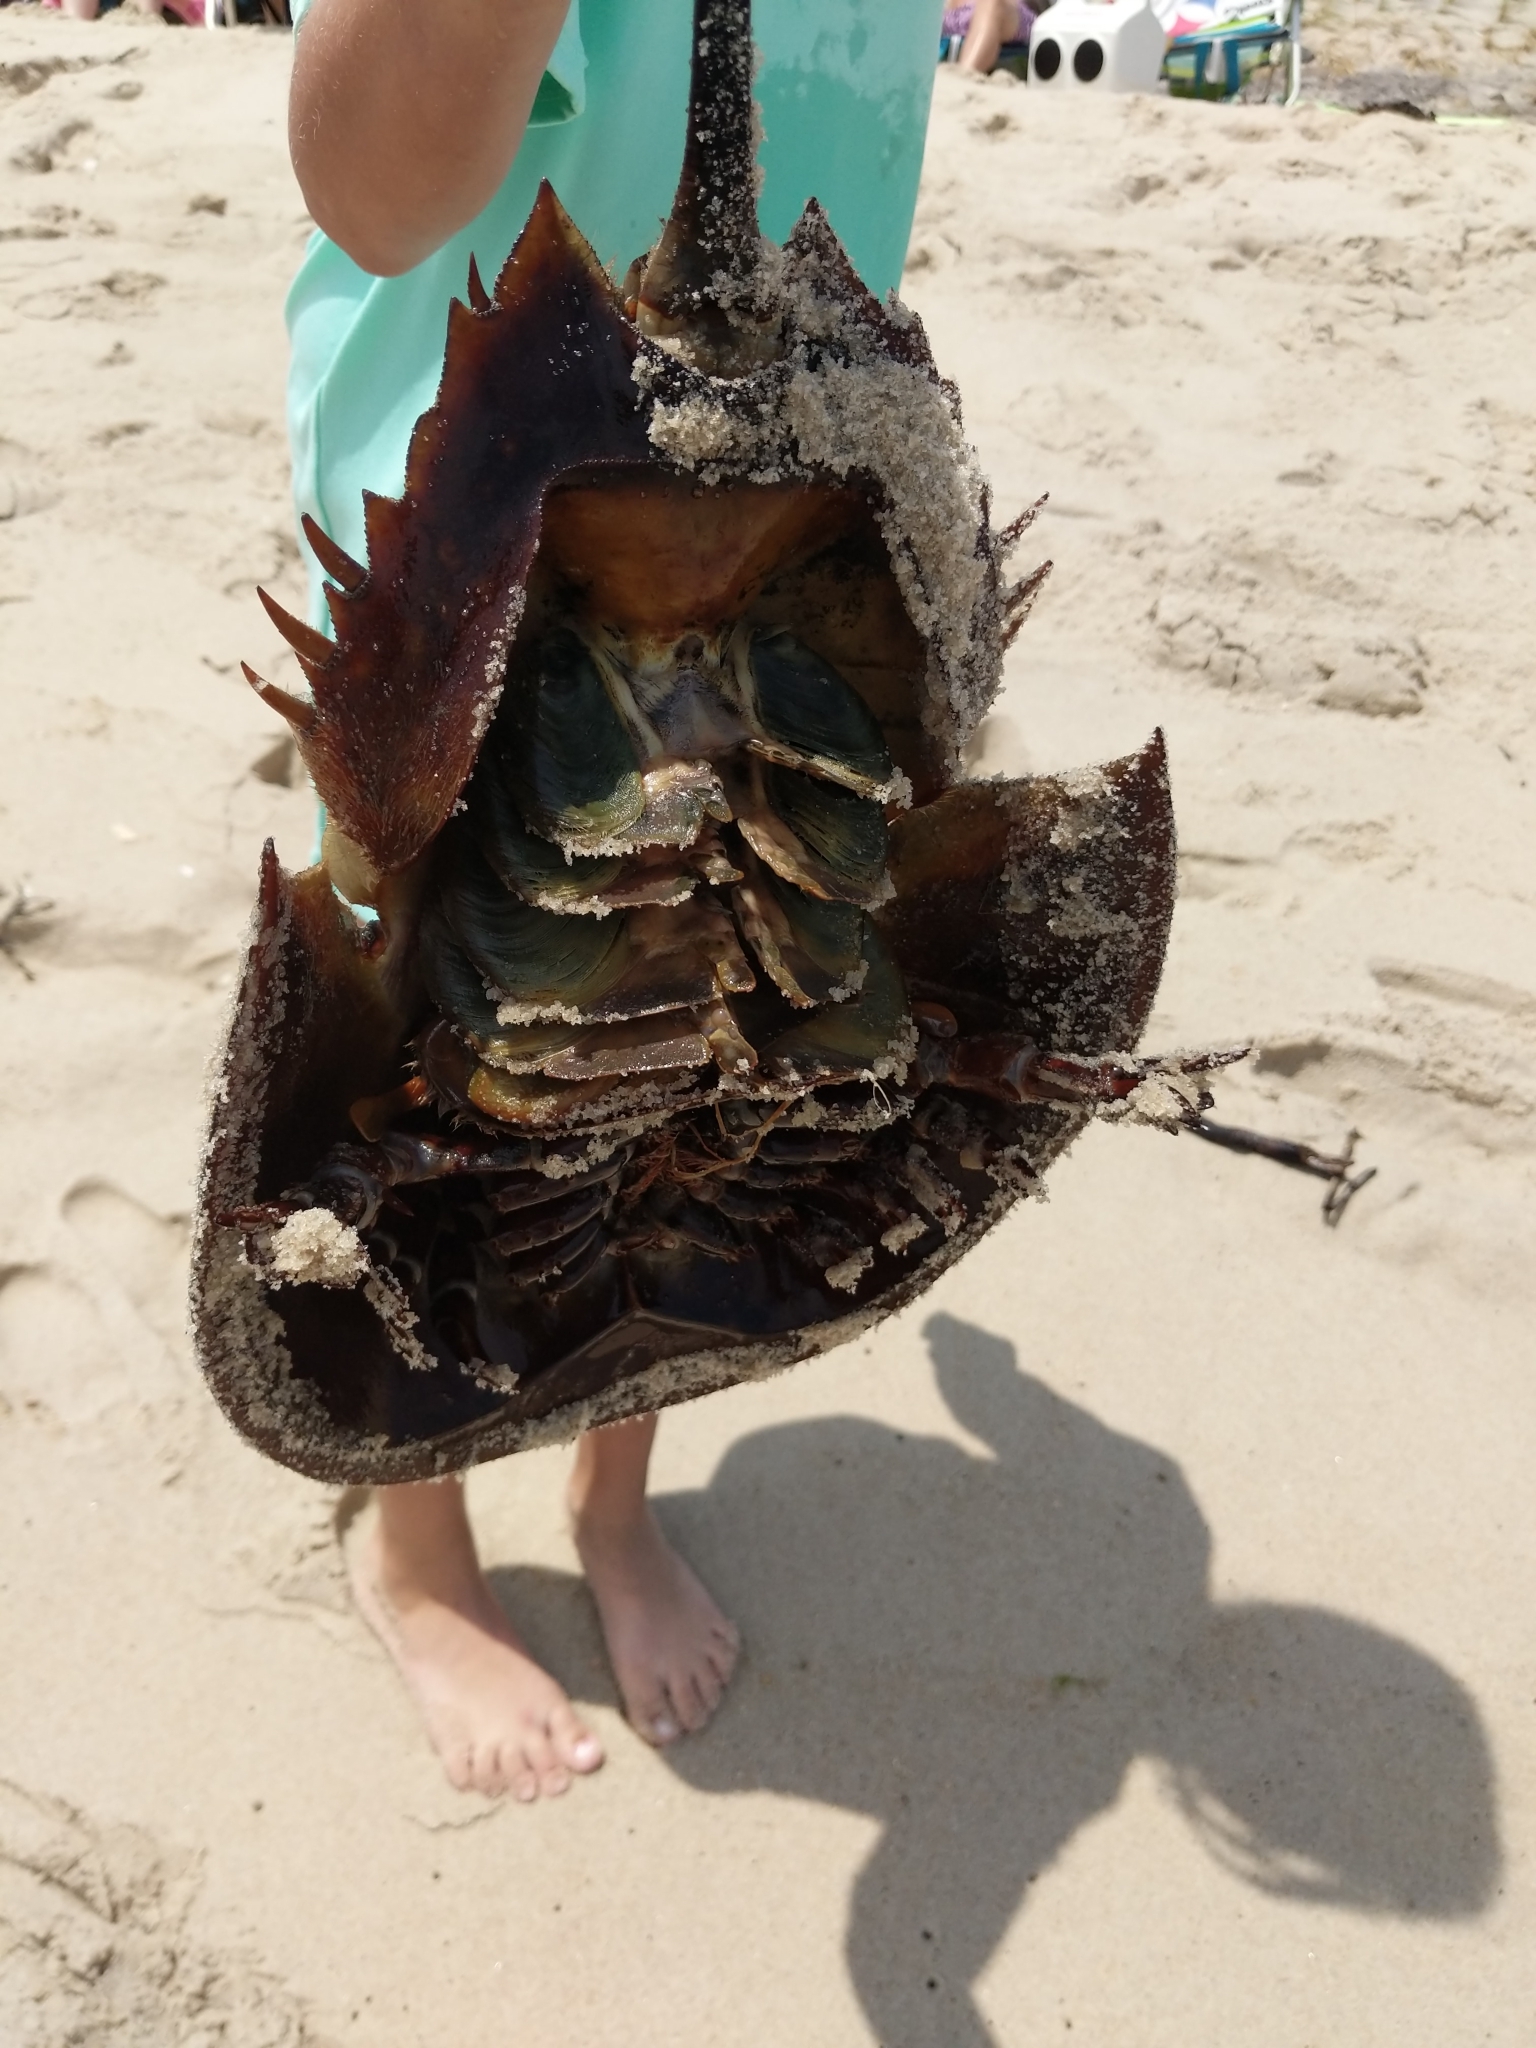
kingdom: Animalia
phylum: Arthropoda
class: Merostomata
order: Xiphosurida
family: Limulidae
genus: Limulus
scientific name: Limulus polyphemus
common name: Horseshoe crab
